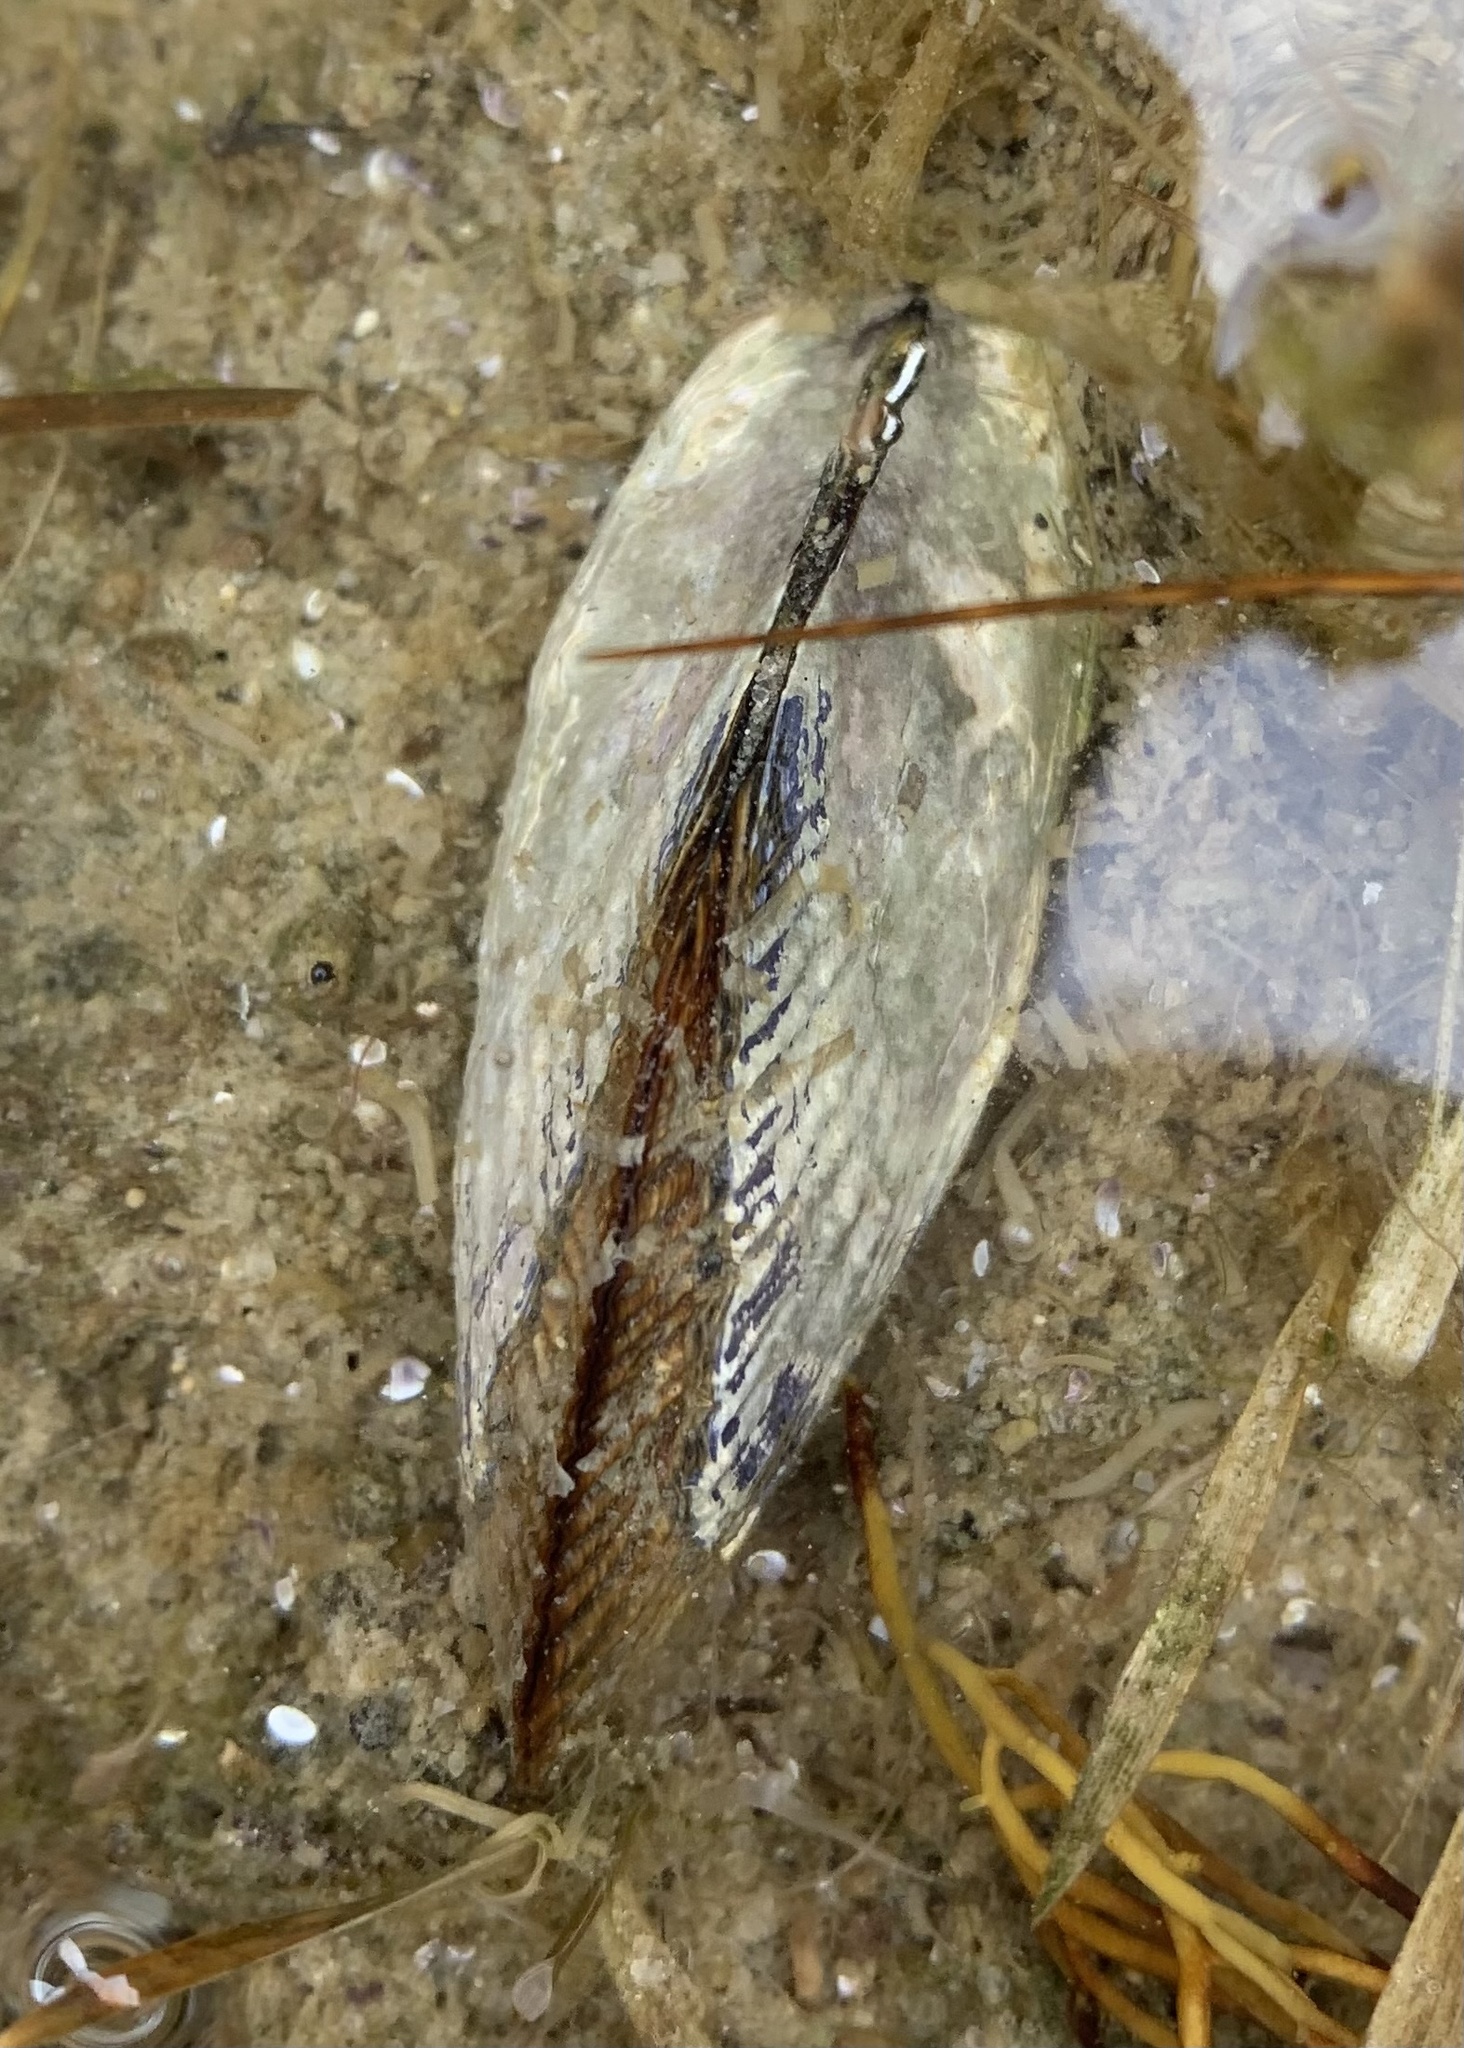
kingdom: Animalia
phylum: Mollusca
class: Bivalvia
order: Mytilida
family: Mytilidae
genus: Geukensia
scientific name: Geukensia demissa
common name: Ribbed mussel
